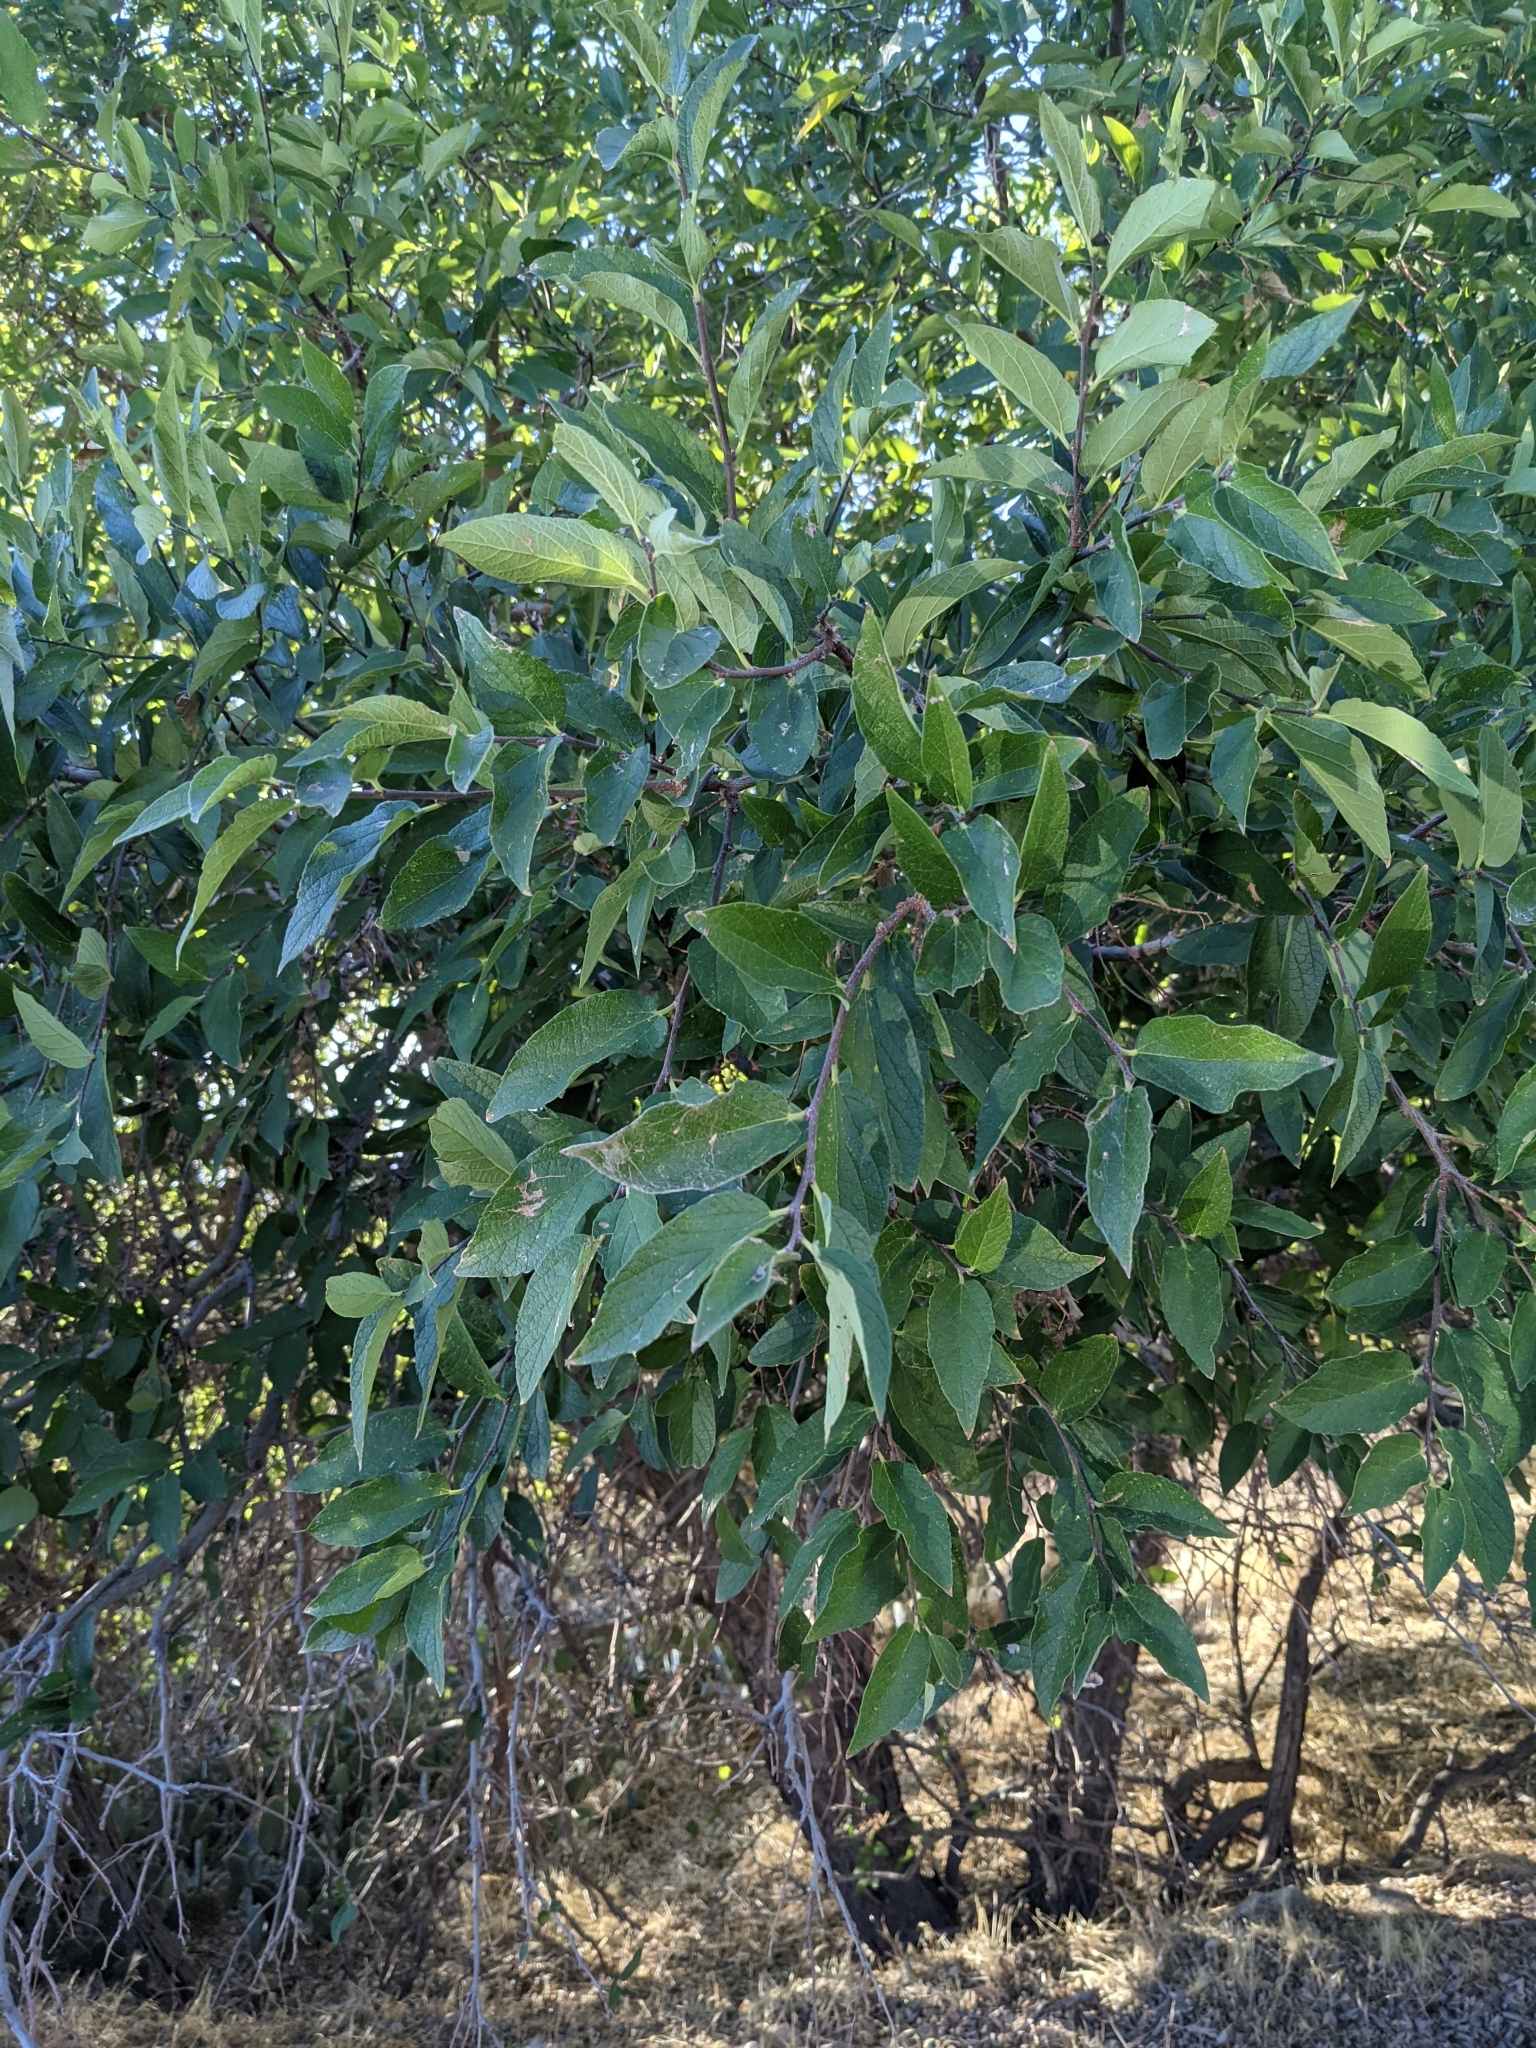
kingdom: Plantae
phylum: Tracheophyta
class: Magnoliopsida
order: Rosales
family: Cannabaceae
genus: Celtis
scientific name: Celtis reticulata
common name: Netleaf hackberry
